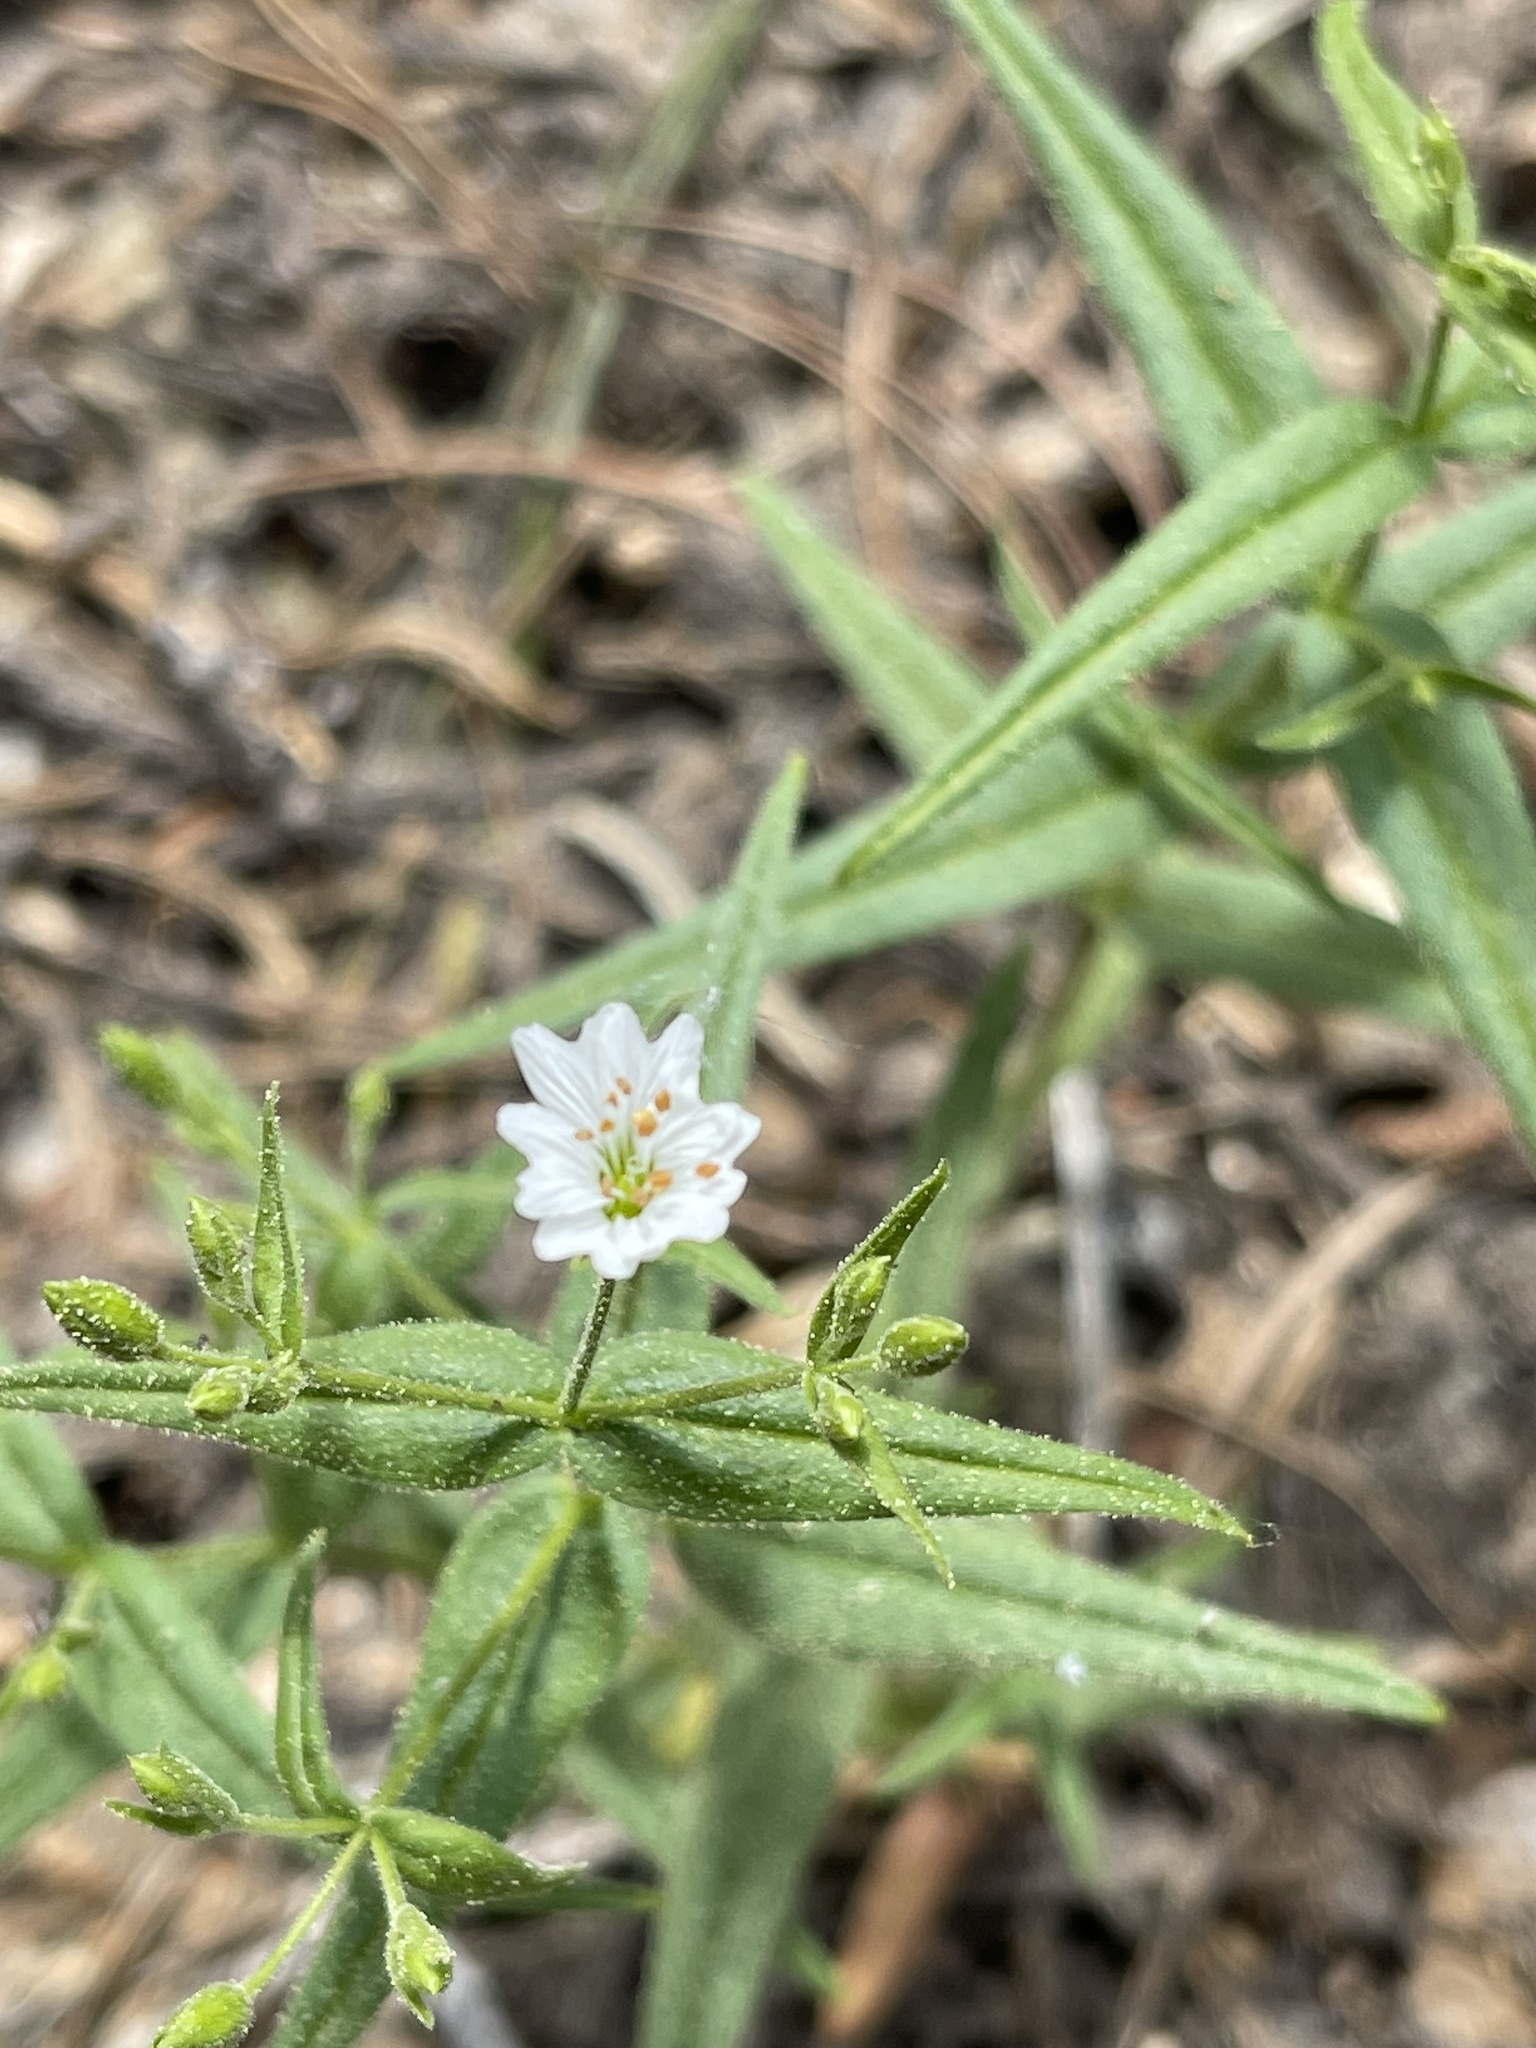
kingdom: Plantae
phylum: Tracheophyta
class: Magnoliopsida
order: Caryophyllales
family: Caryophyllaceae
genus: Schizotechium
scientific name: Schizotechium jamesianum
